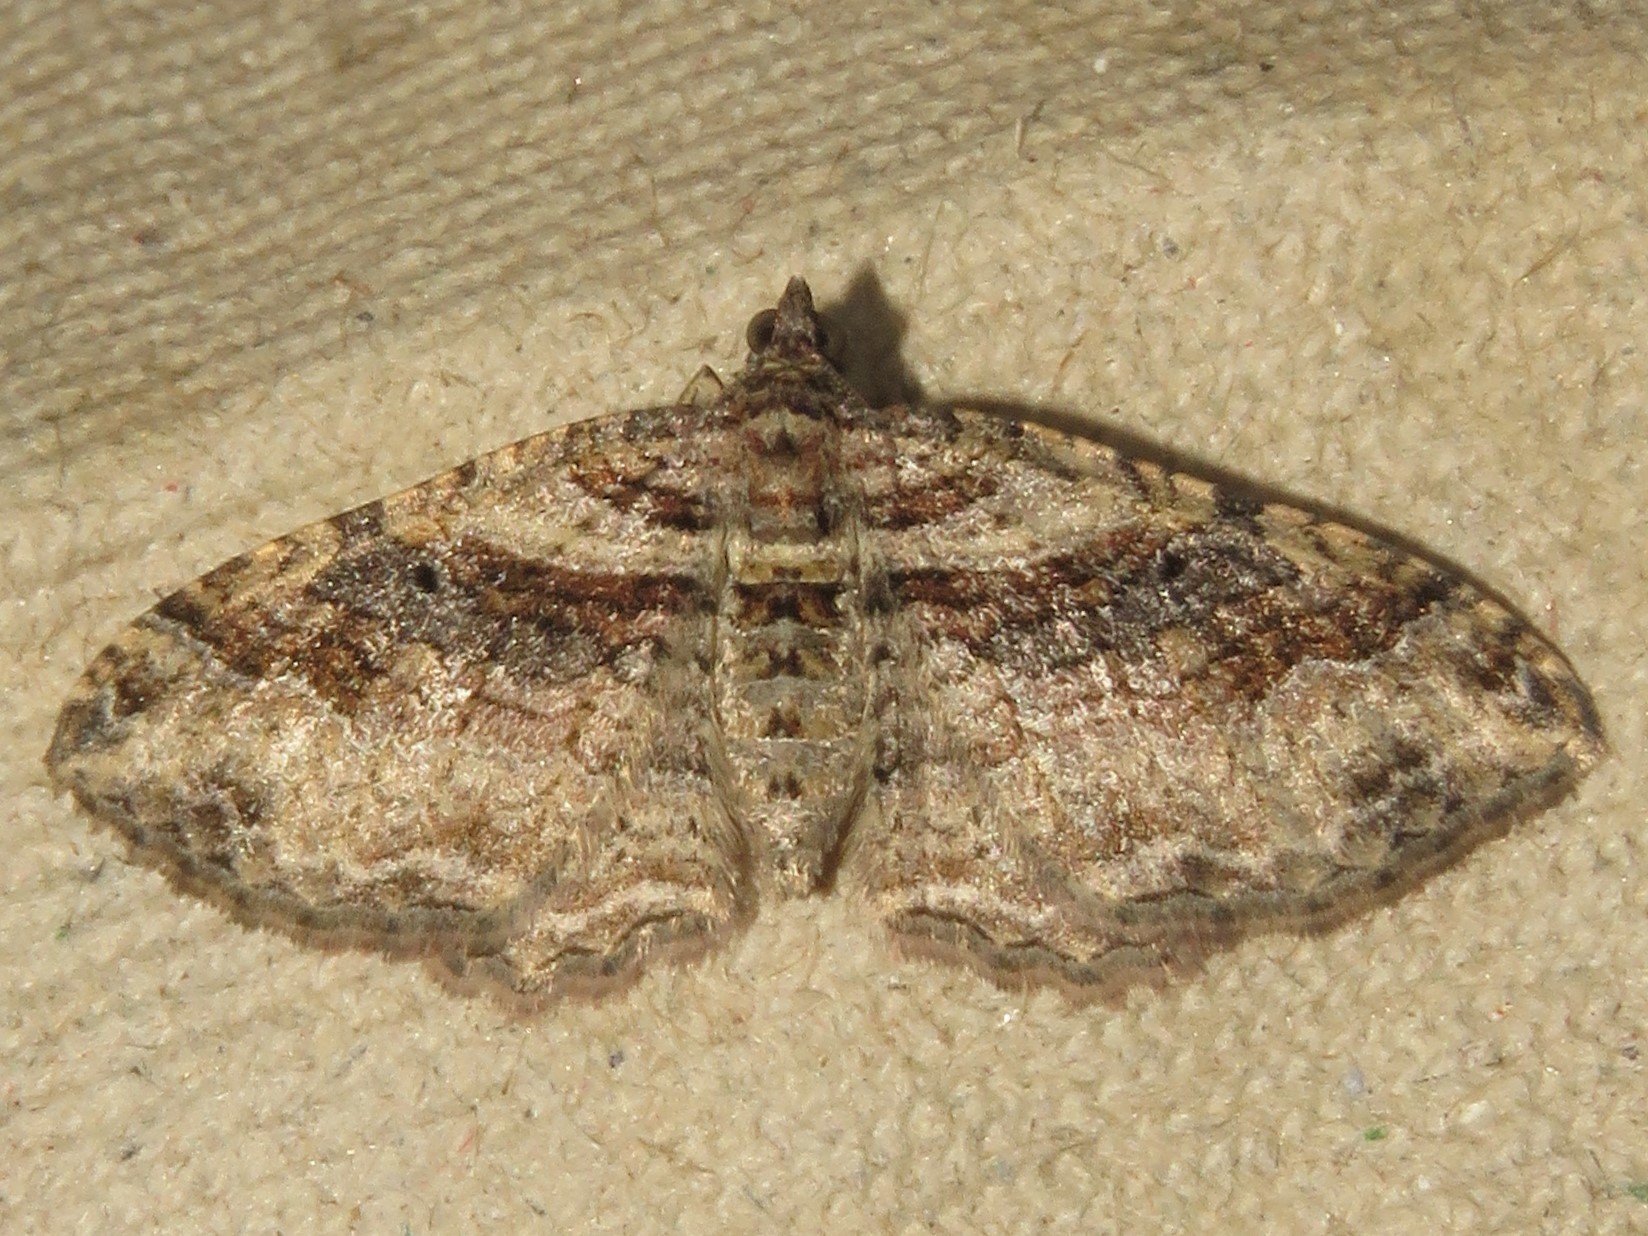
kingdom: Animalia
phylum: Arthropoda
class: Insecta
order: Lepidoptera
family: Geometridae
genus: Costaconvexa
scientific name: Costaconvexa centrostrigaria
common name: Bent-line carpet
